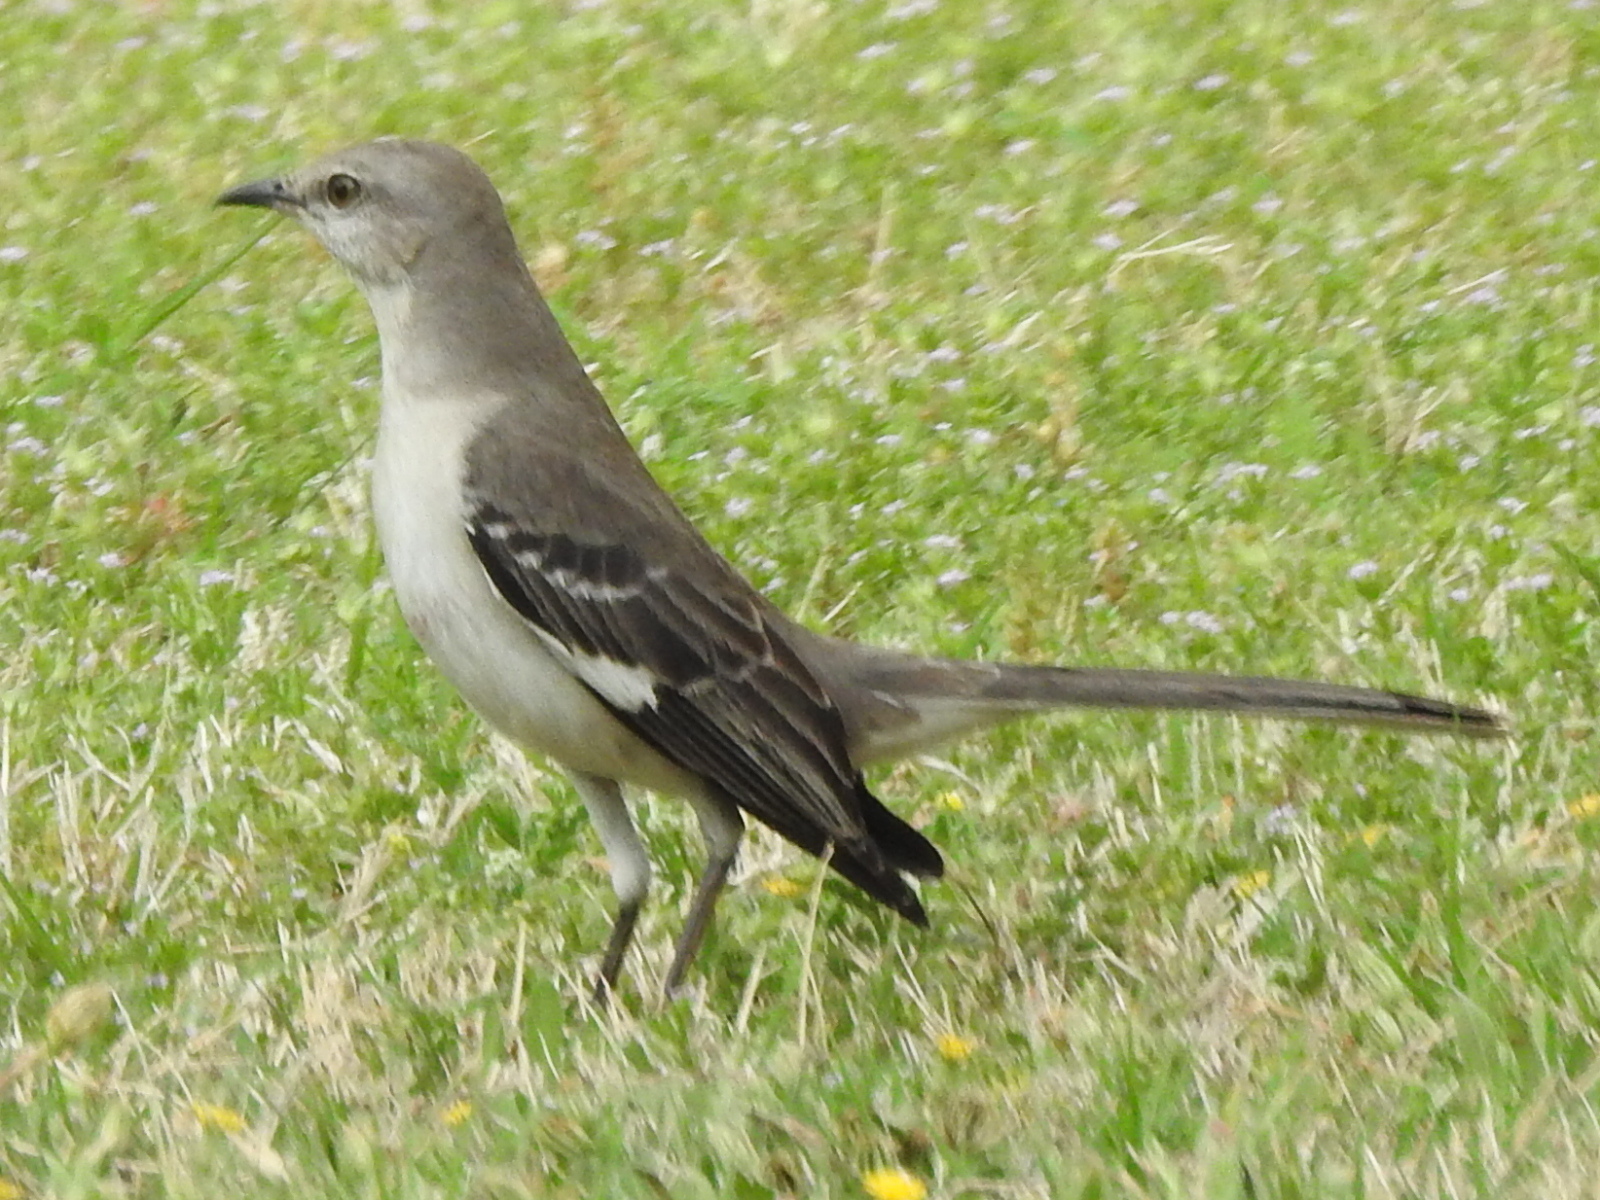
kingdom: Animalia
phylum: Chordata
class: Aves
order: Passeriformes
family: Mimidae
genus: Mimus
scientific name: Mimus polyglottos
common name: Northern mockingbird
